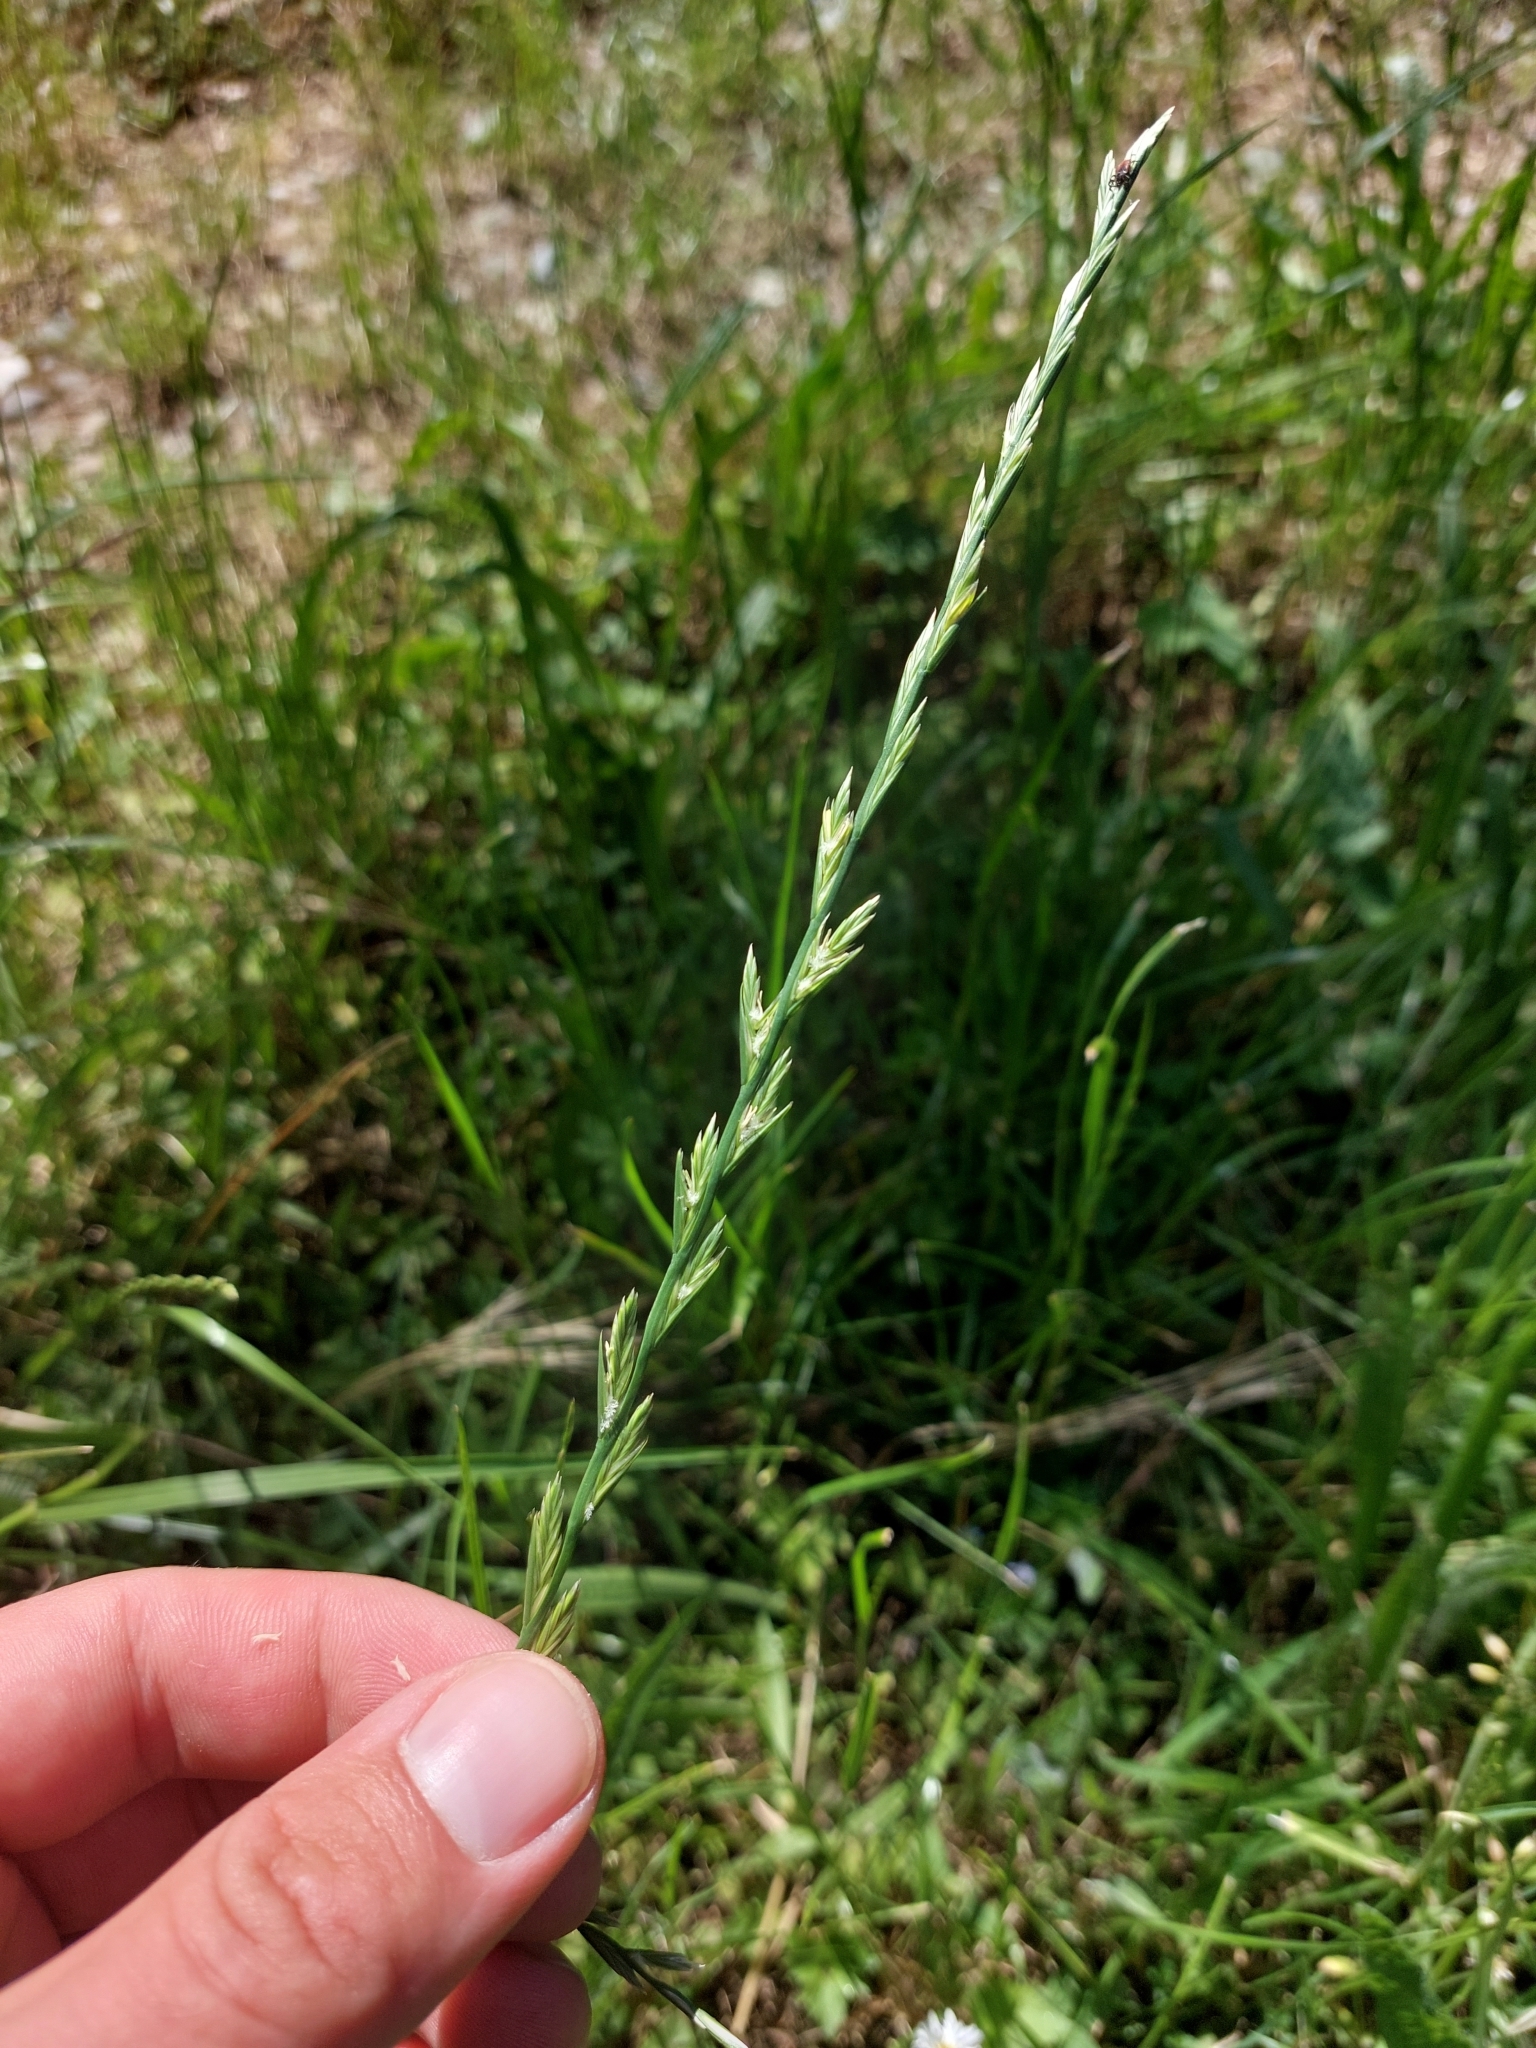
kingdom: Plantae
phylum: Tracheophyta
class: Liliopsida
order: Poales
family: Poaceae
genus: Lolium
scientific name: Lolium perenne
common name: Perennial ryegrass
